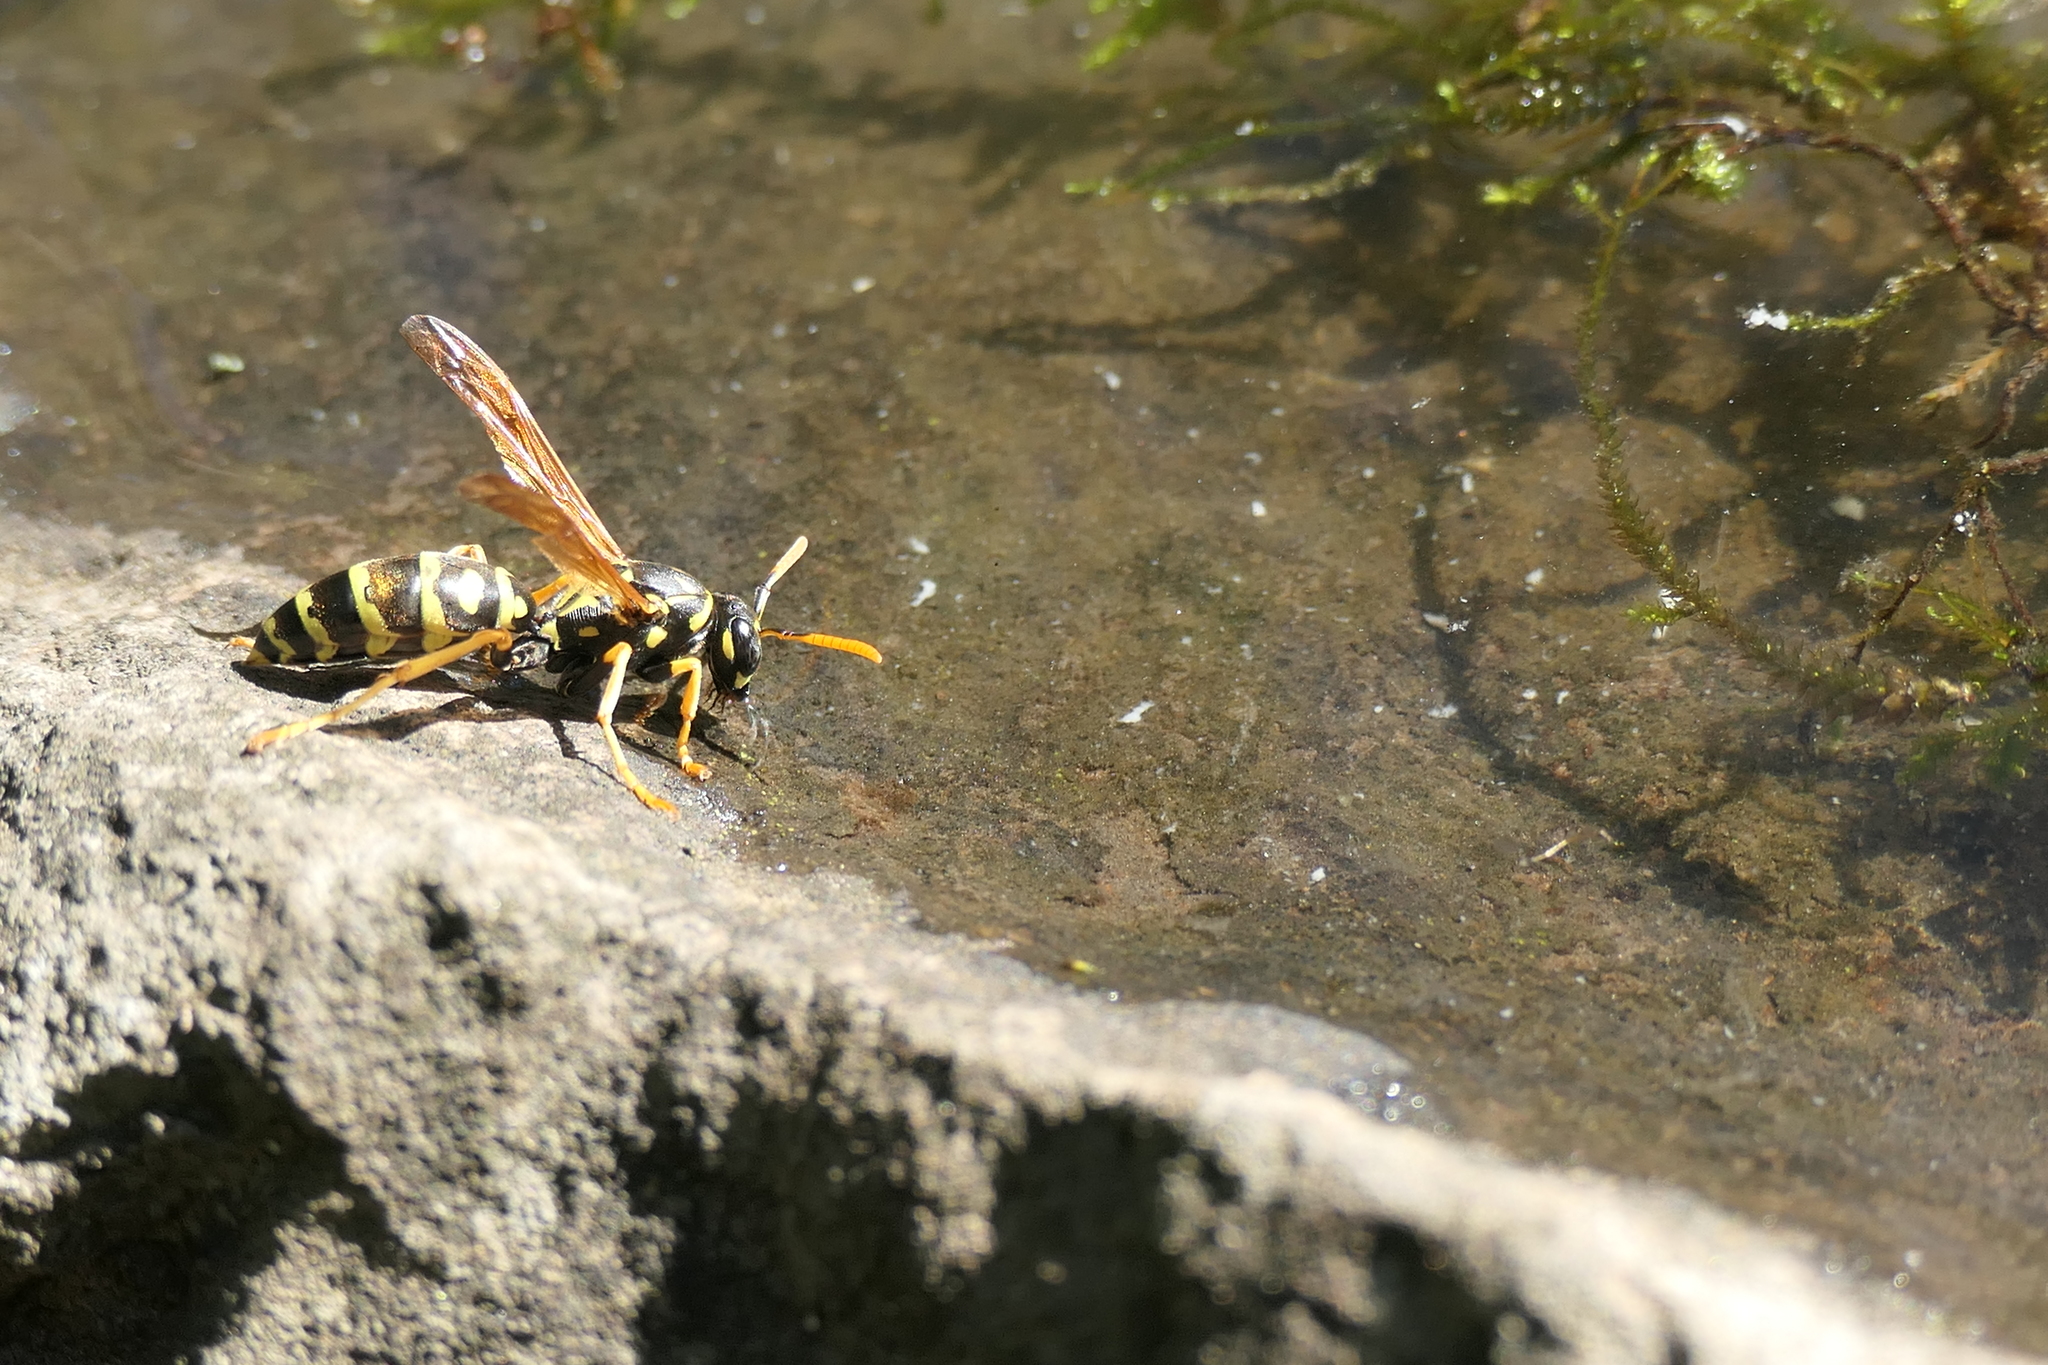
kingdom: Animalia
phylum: Arthropoda
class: Insecta
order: Hymenoptera
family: Eumenidae
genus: Polistes
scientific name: Polistes dominula
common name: Paper wasp
